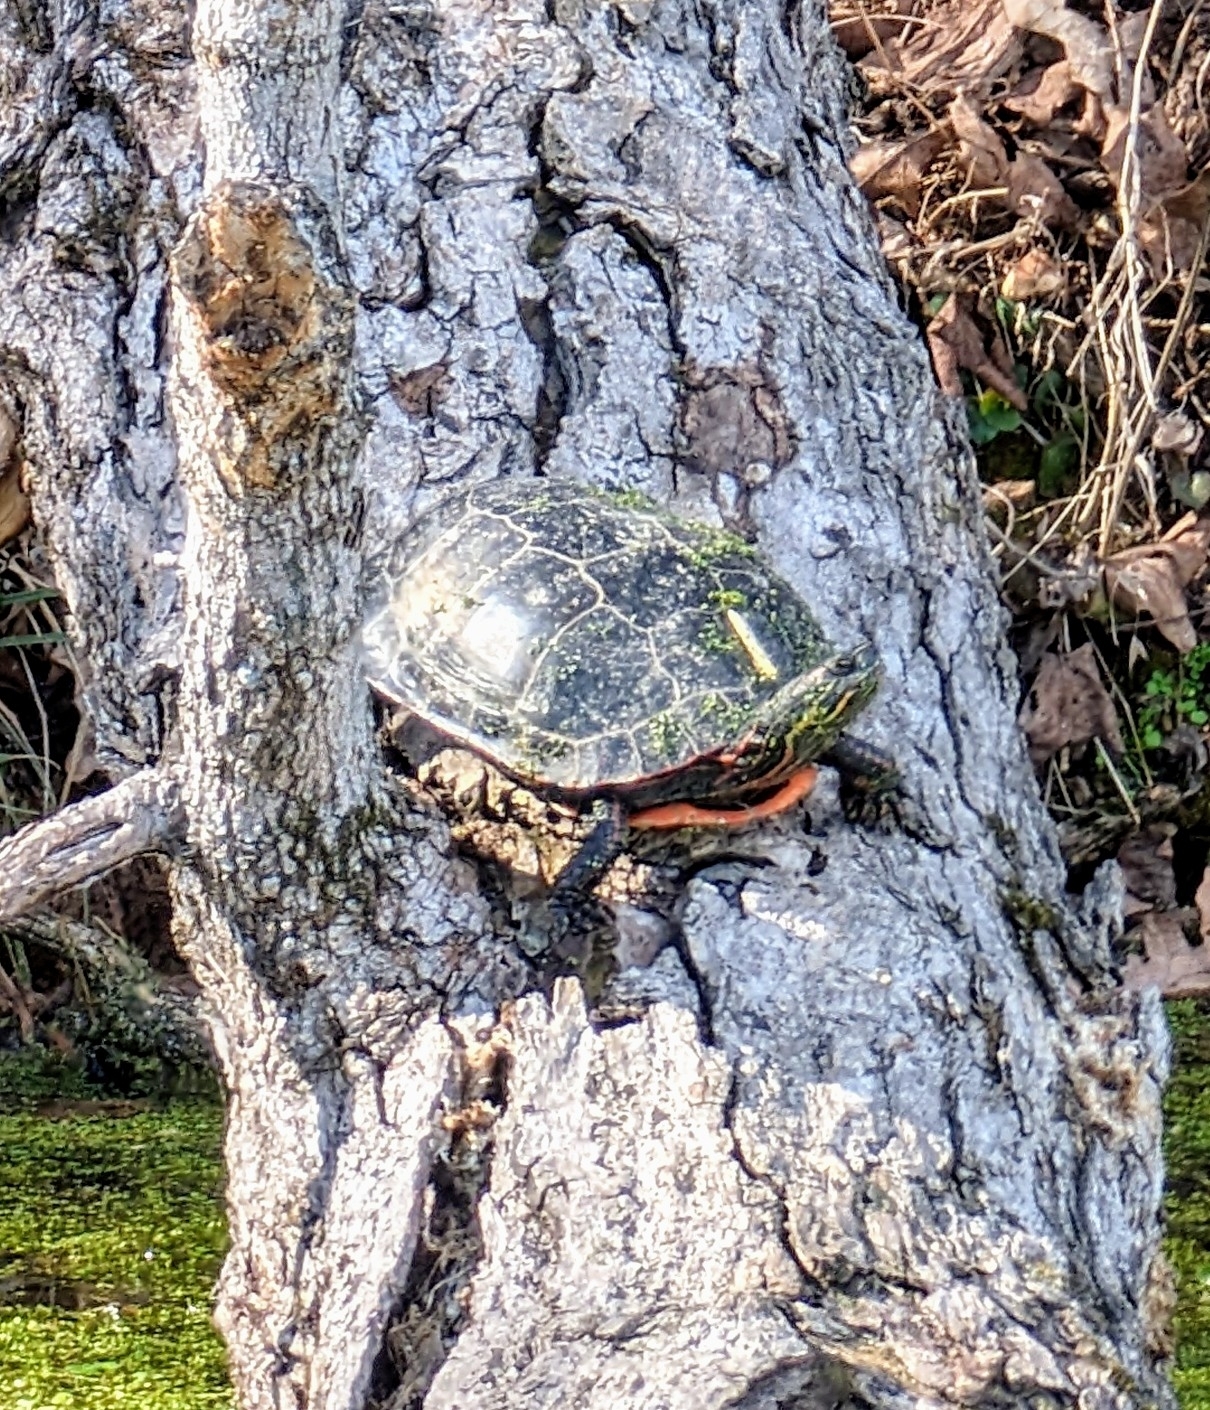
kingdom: Animalia
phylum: Chordata
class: Testudines
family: Emydidae
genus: Chrysemys
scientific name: Chrysemys picta
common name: Painted turtle
